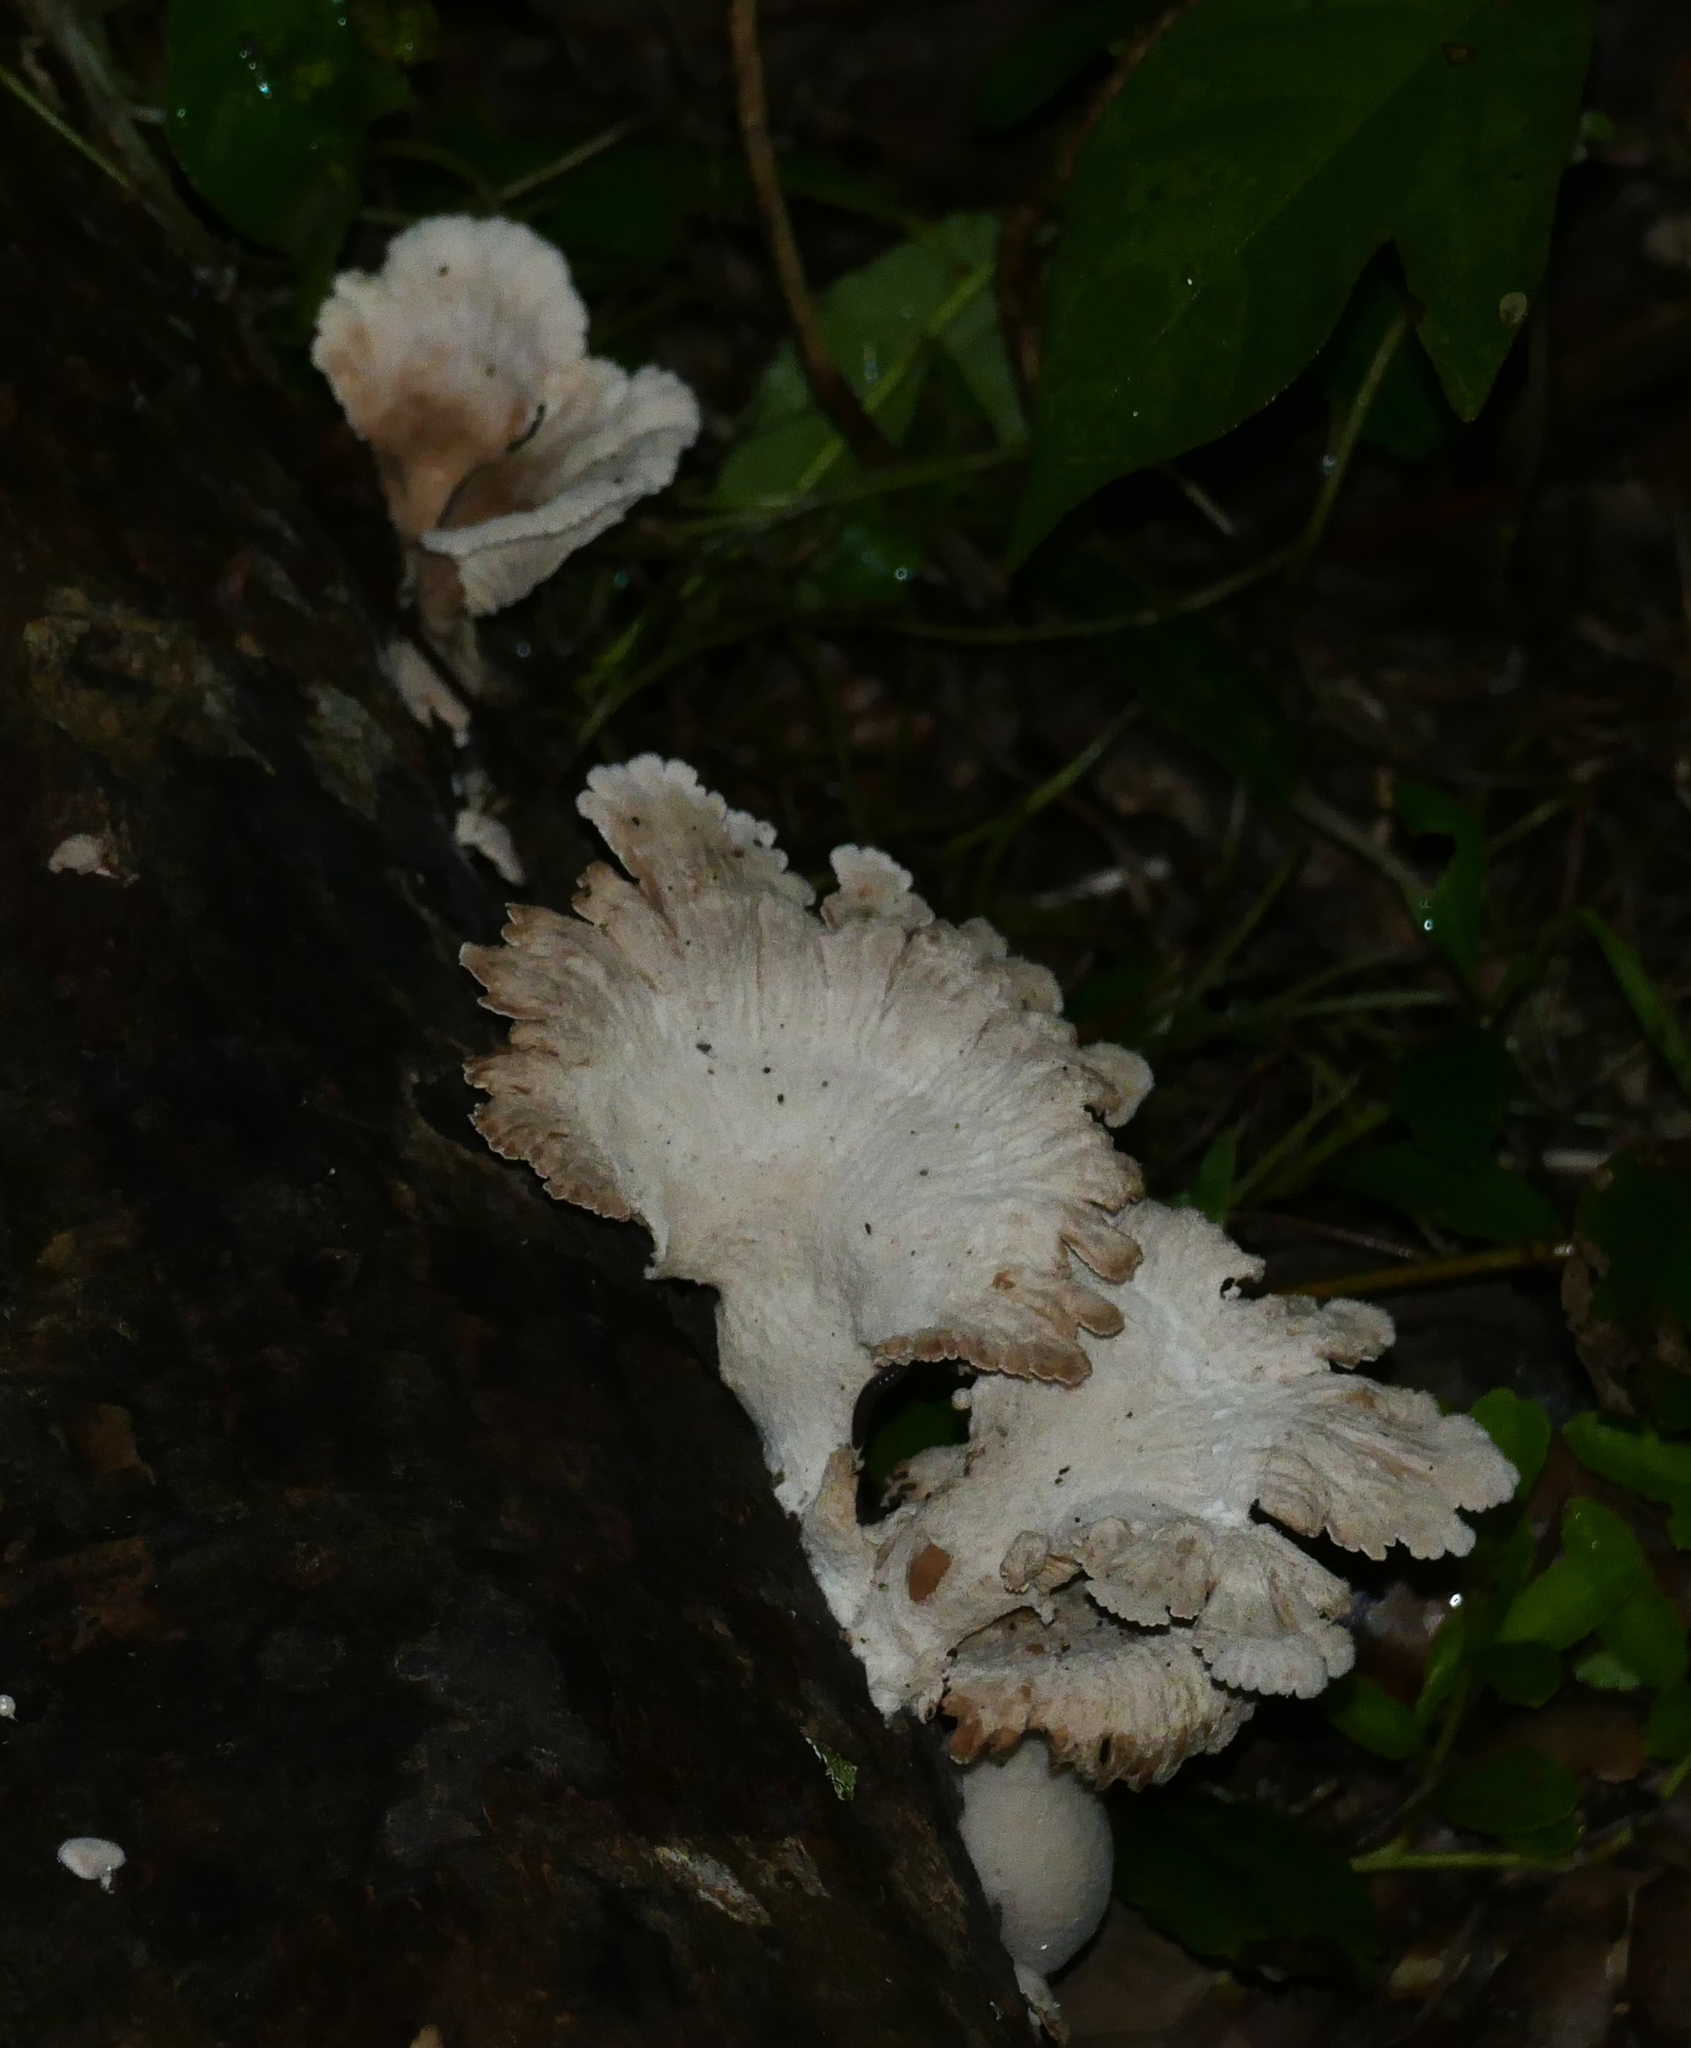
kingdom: Fungi
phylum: Basidiomycota
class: Agaricomycetes
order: Agaricales
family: Schizophyllaceae
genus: Schizophyllum
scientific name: Schizophyllum commune
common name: Common porecrust
